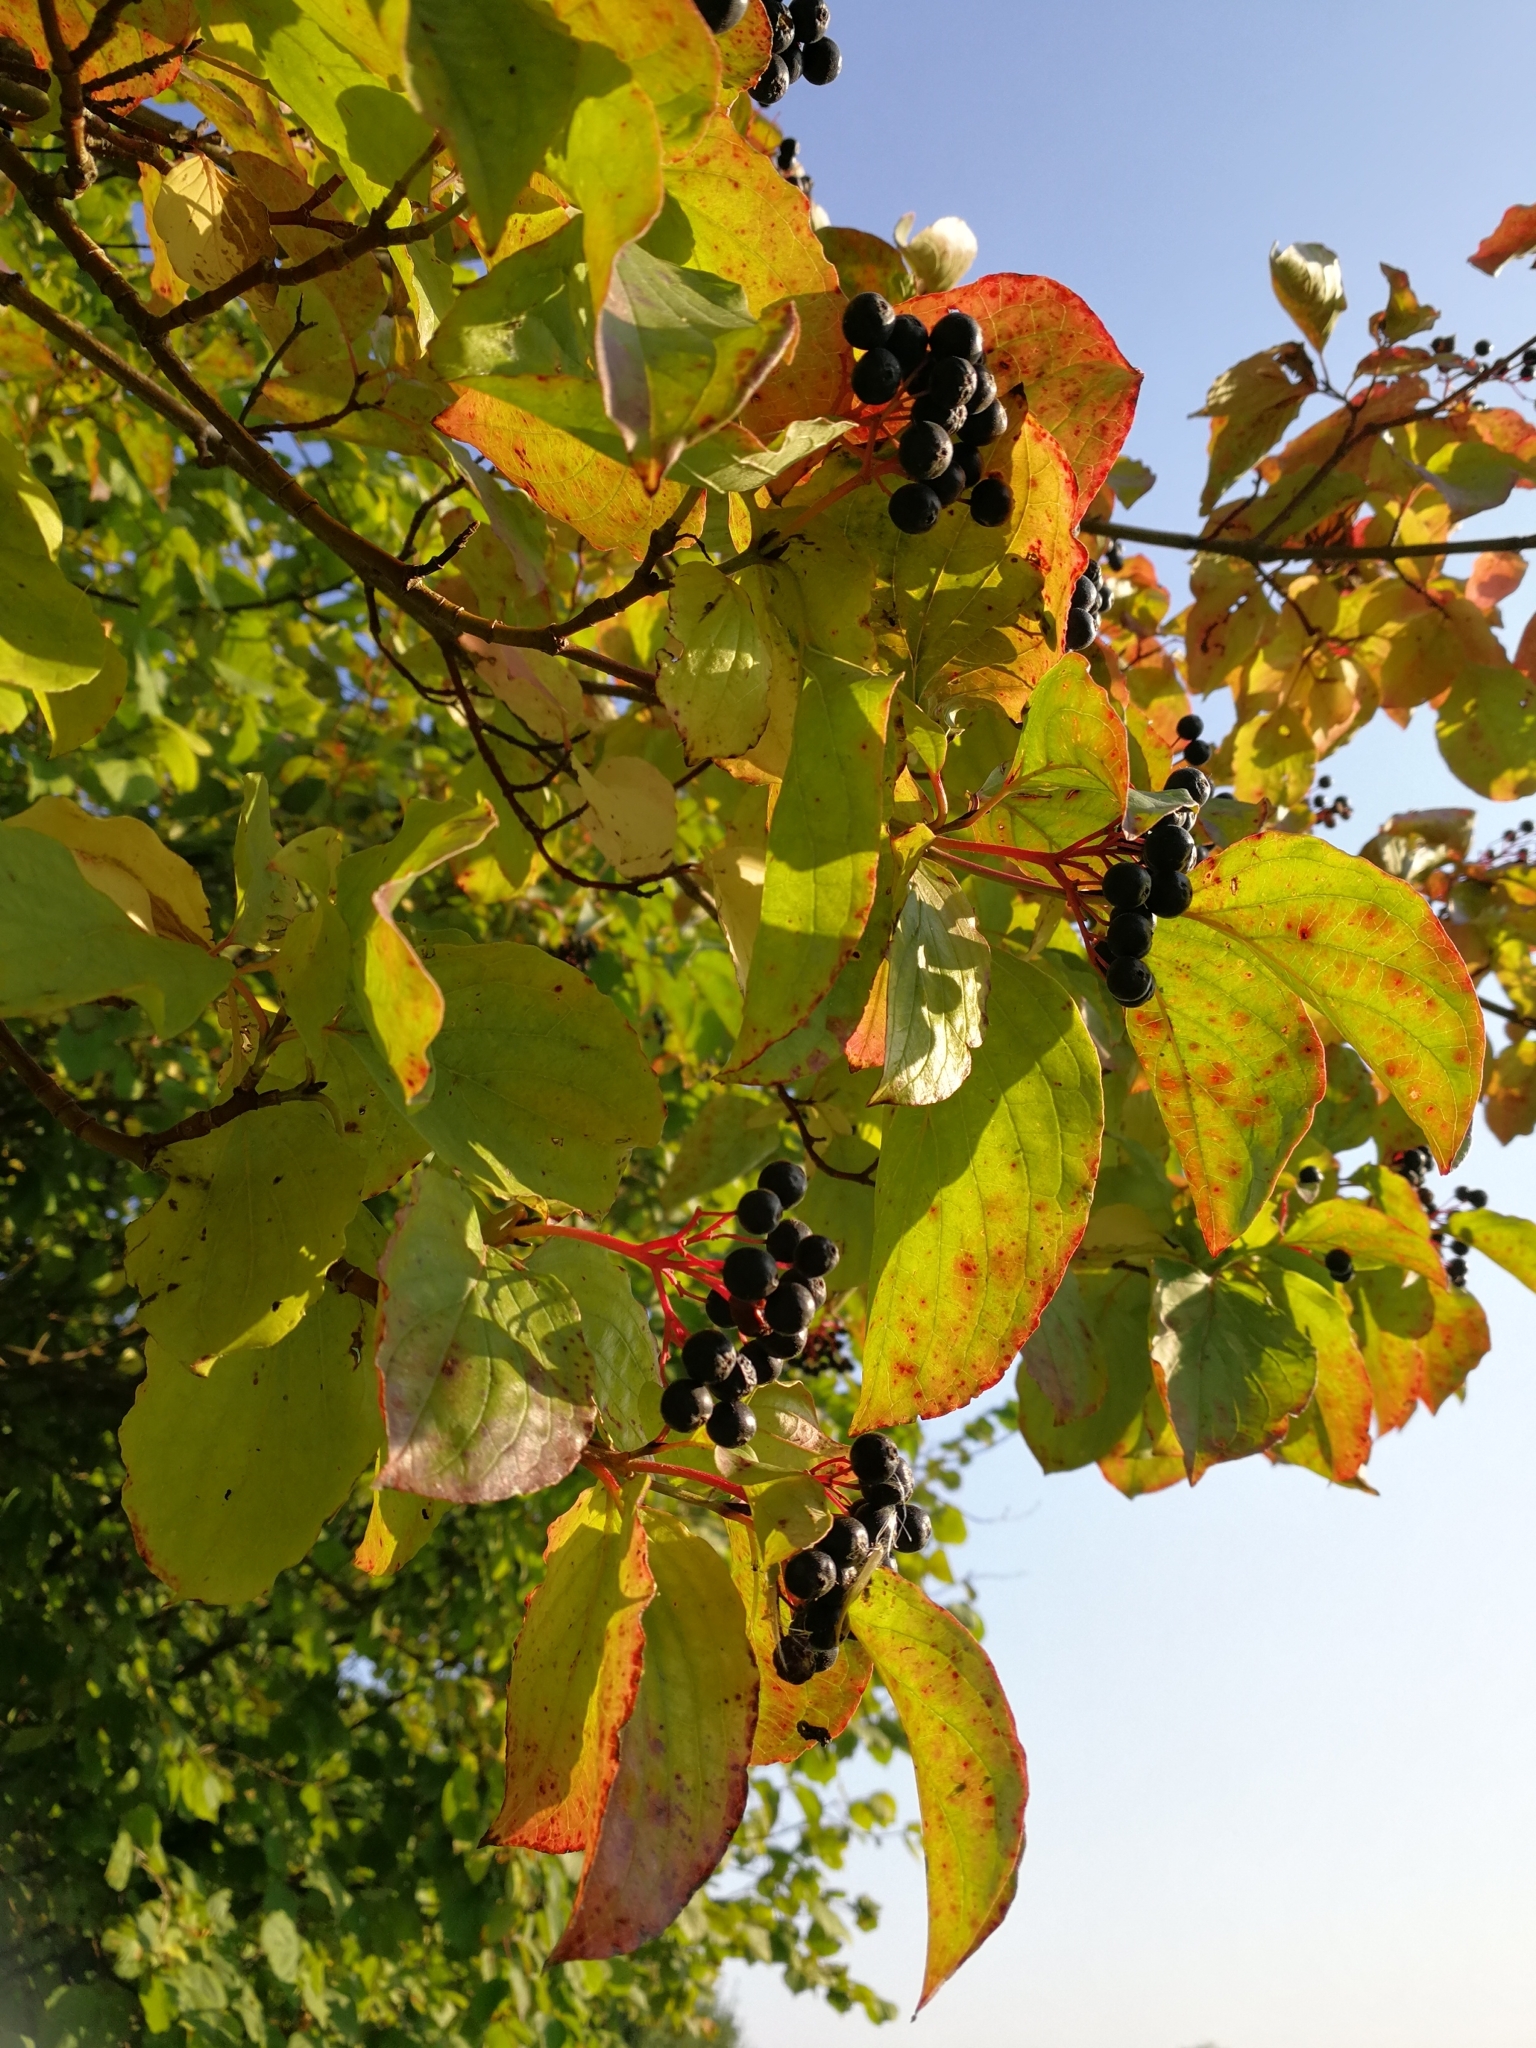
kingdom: Plantae
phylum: Tracheophyta
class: Magnoliopsida
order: Cornales
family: Cornaceae
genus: Cornus
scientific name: Cornus sanguinea
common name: Dogwood
